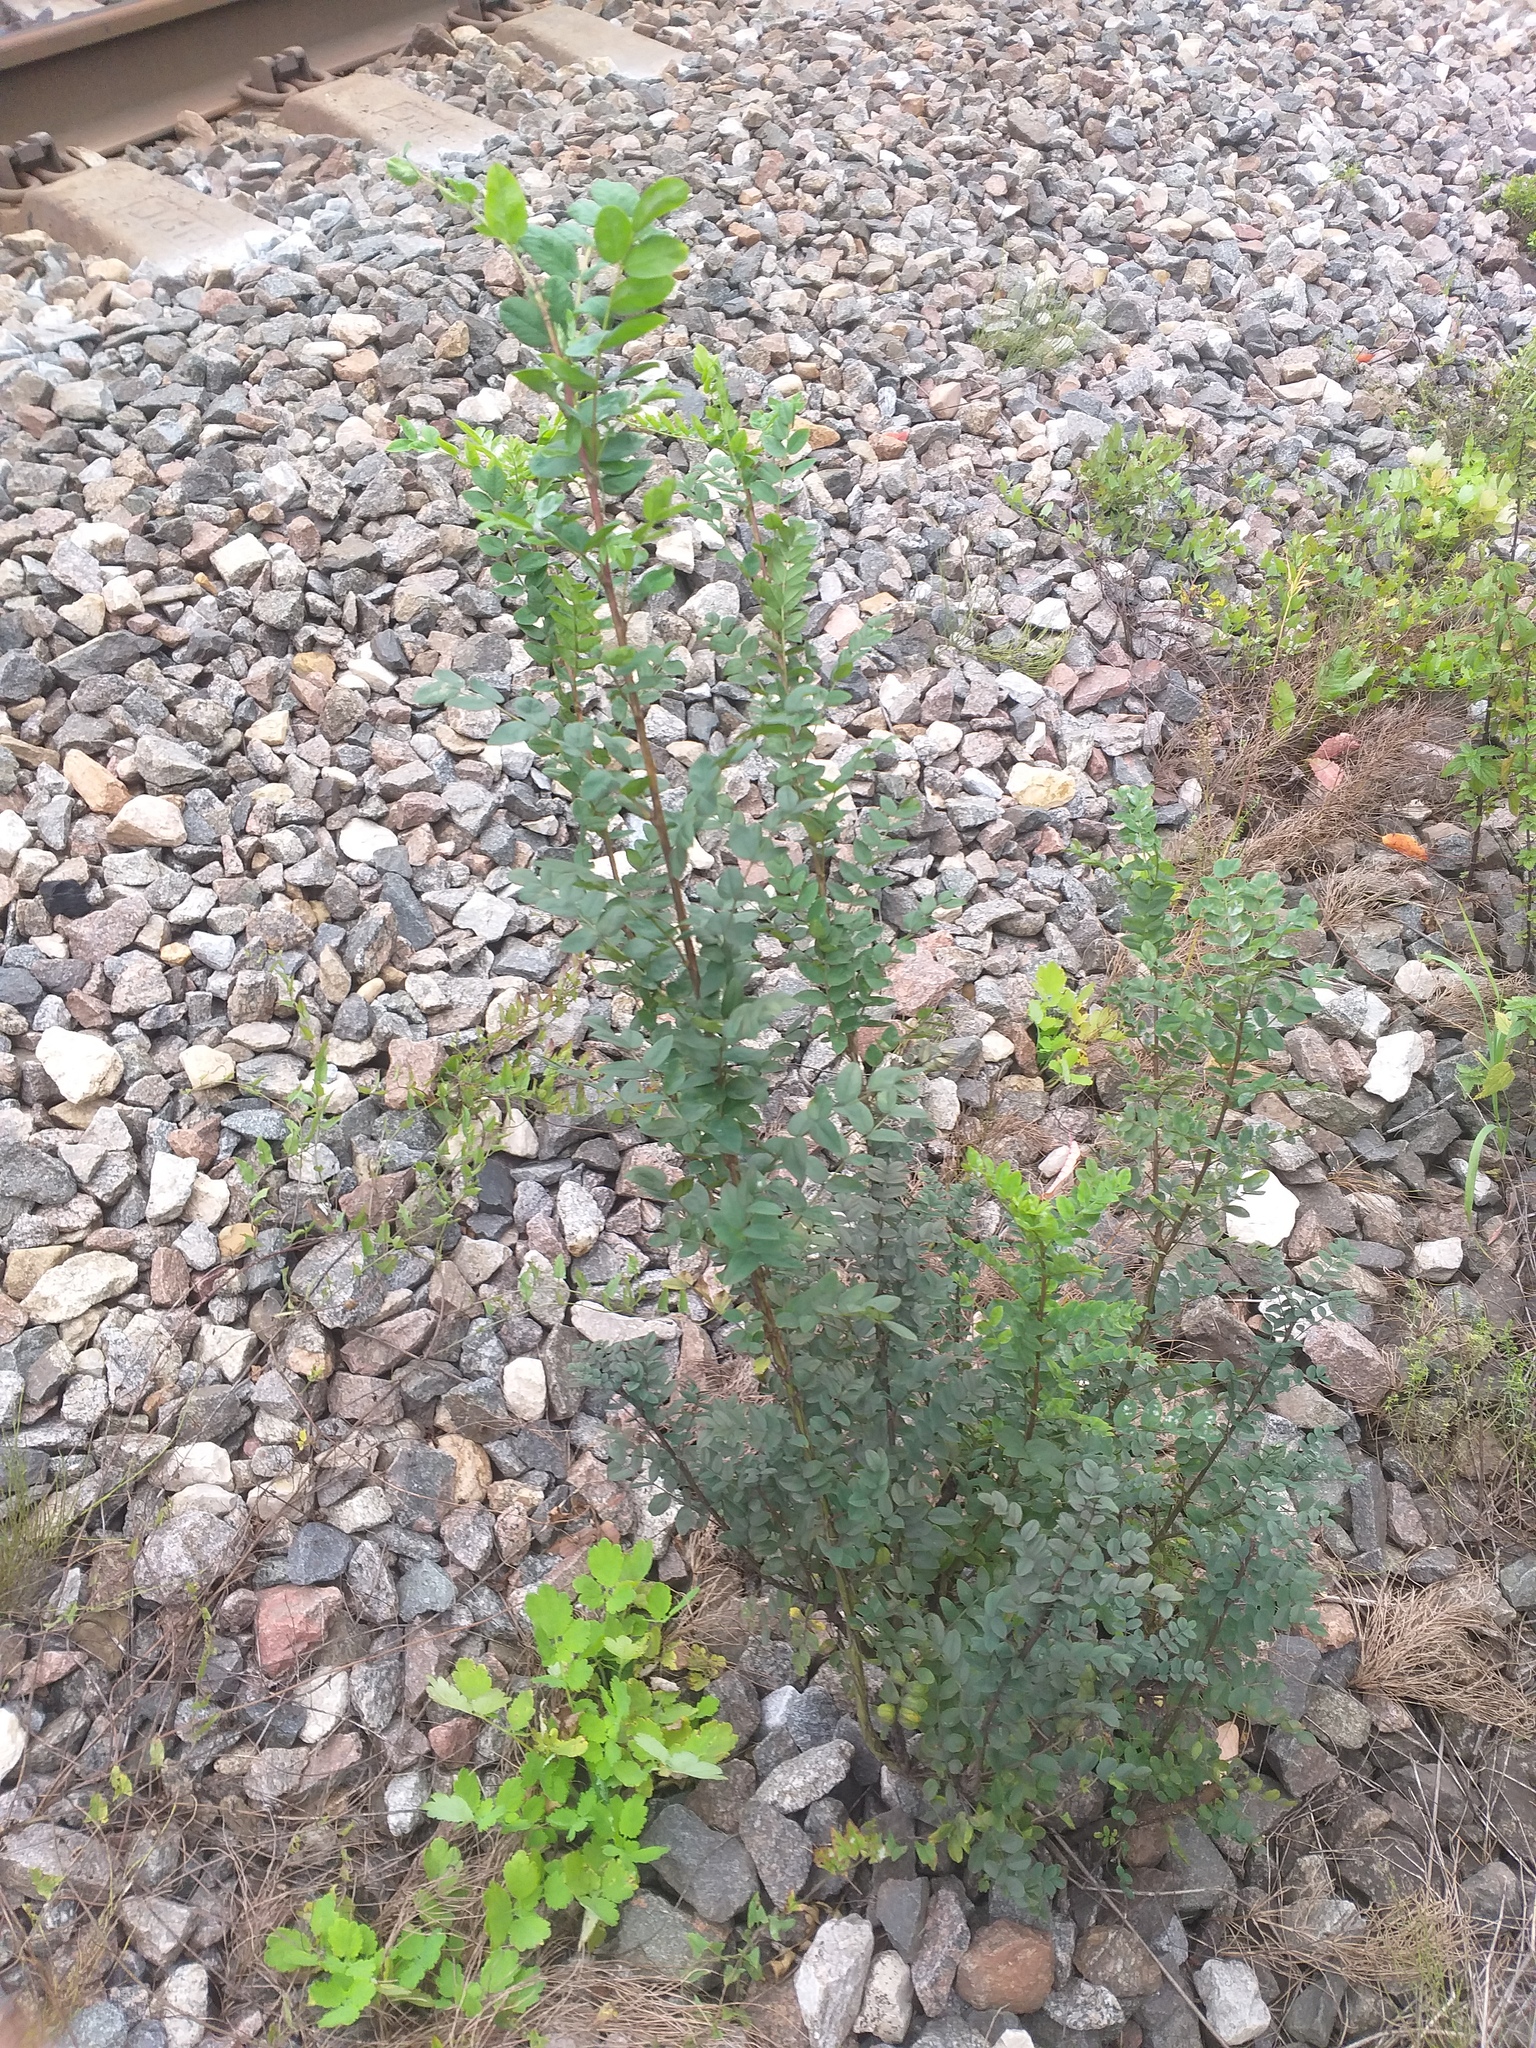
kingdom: Plantae
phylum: Tracheophyta
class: Magnoliopsida
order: Fabales
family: Fabaceae
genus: Caragana
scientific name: Caragana arborescens
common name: Siberian peashrub
